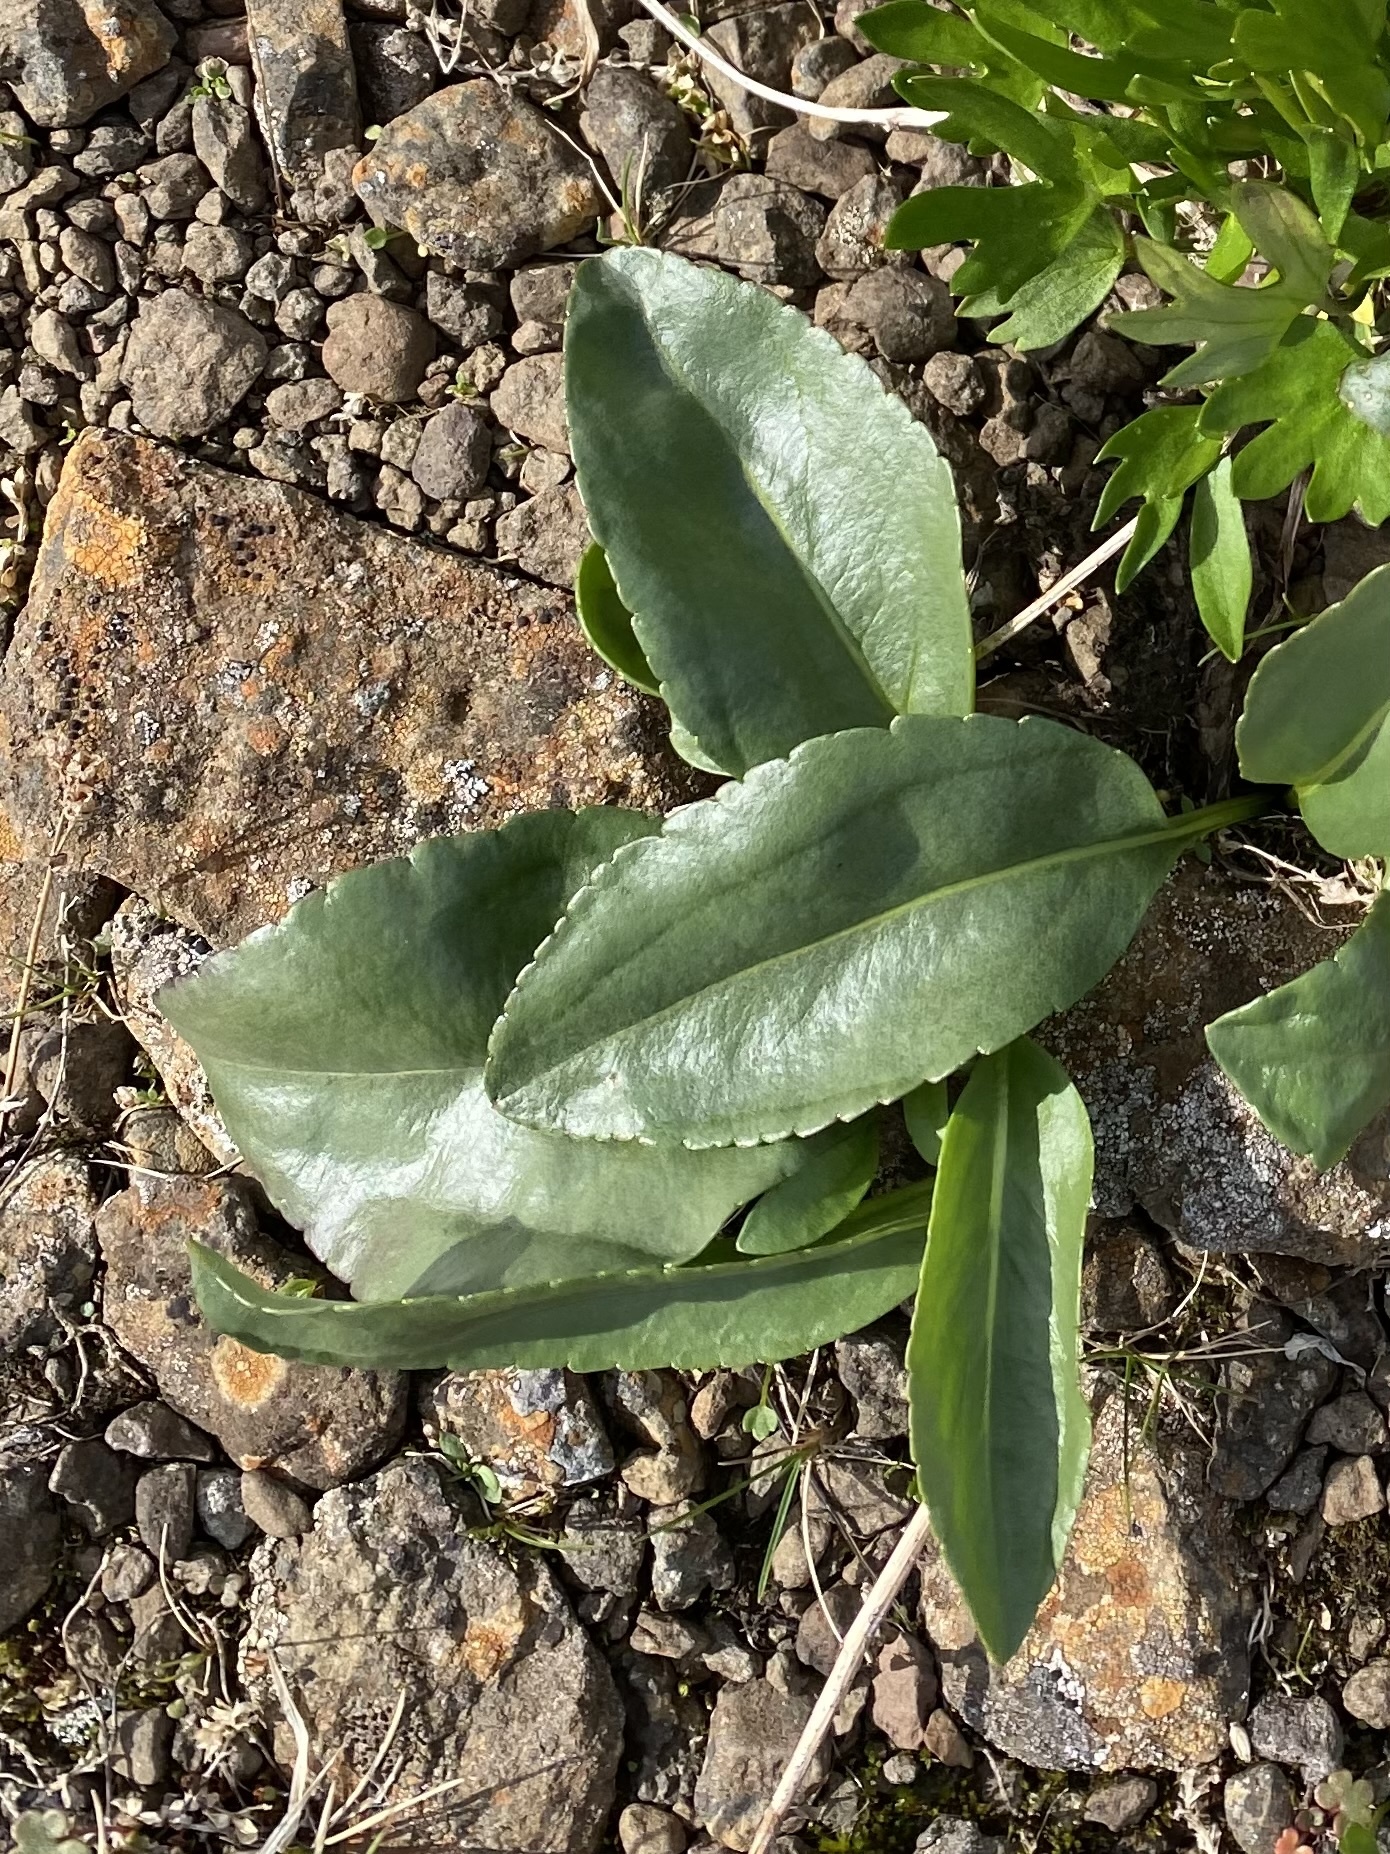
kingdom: Plantae
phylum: Tracheophyta
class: Magnoliopsida
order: Lamiales
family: Plantaginaceae
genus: Lagotis
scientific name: Lagotis glauca
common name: Glaucous weaselsnout
